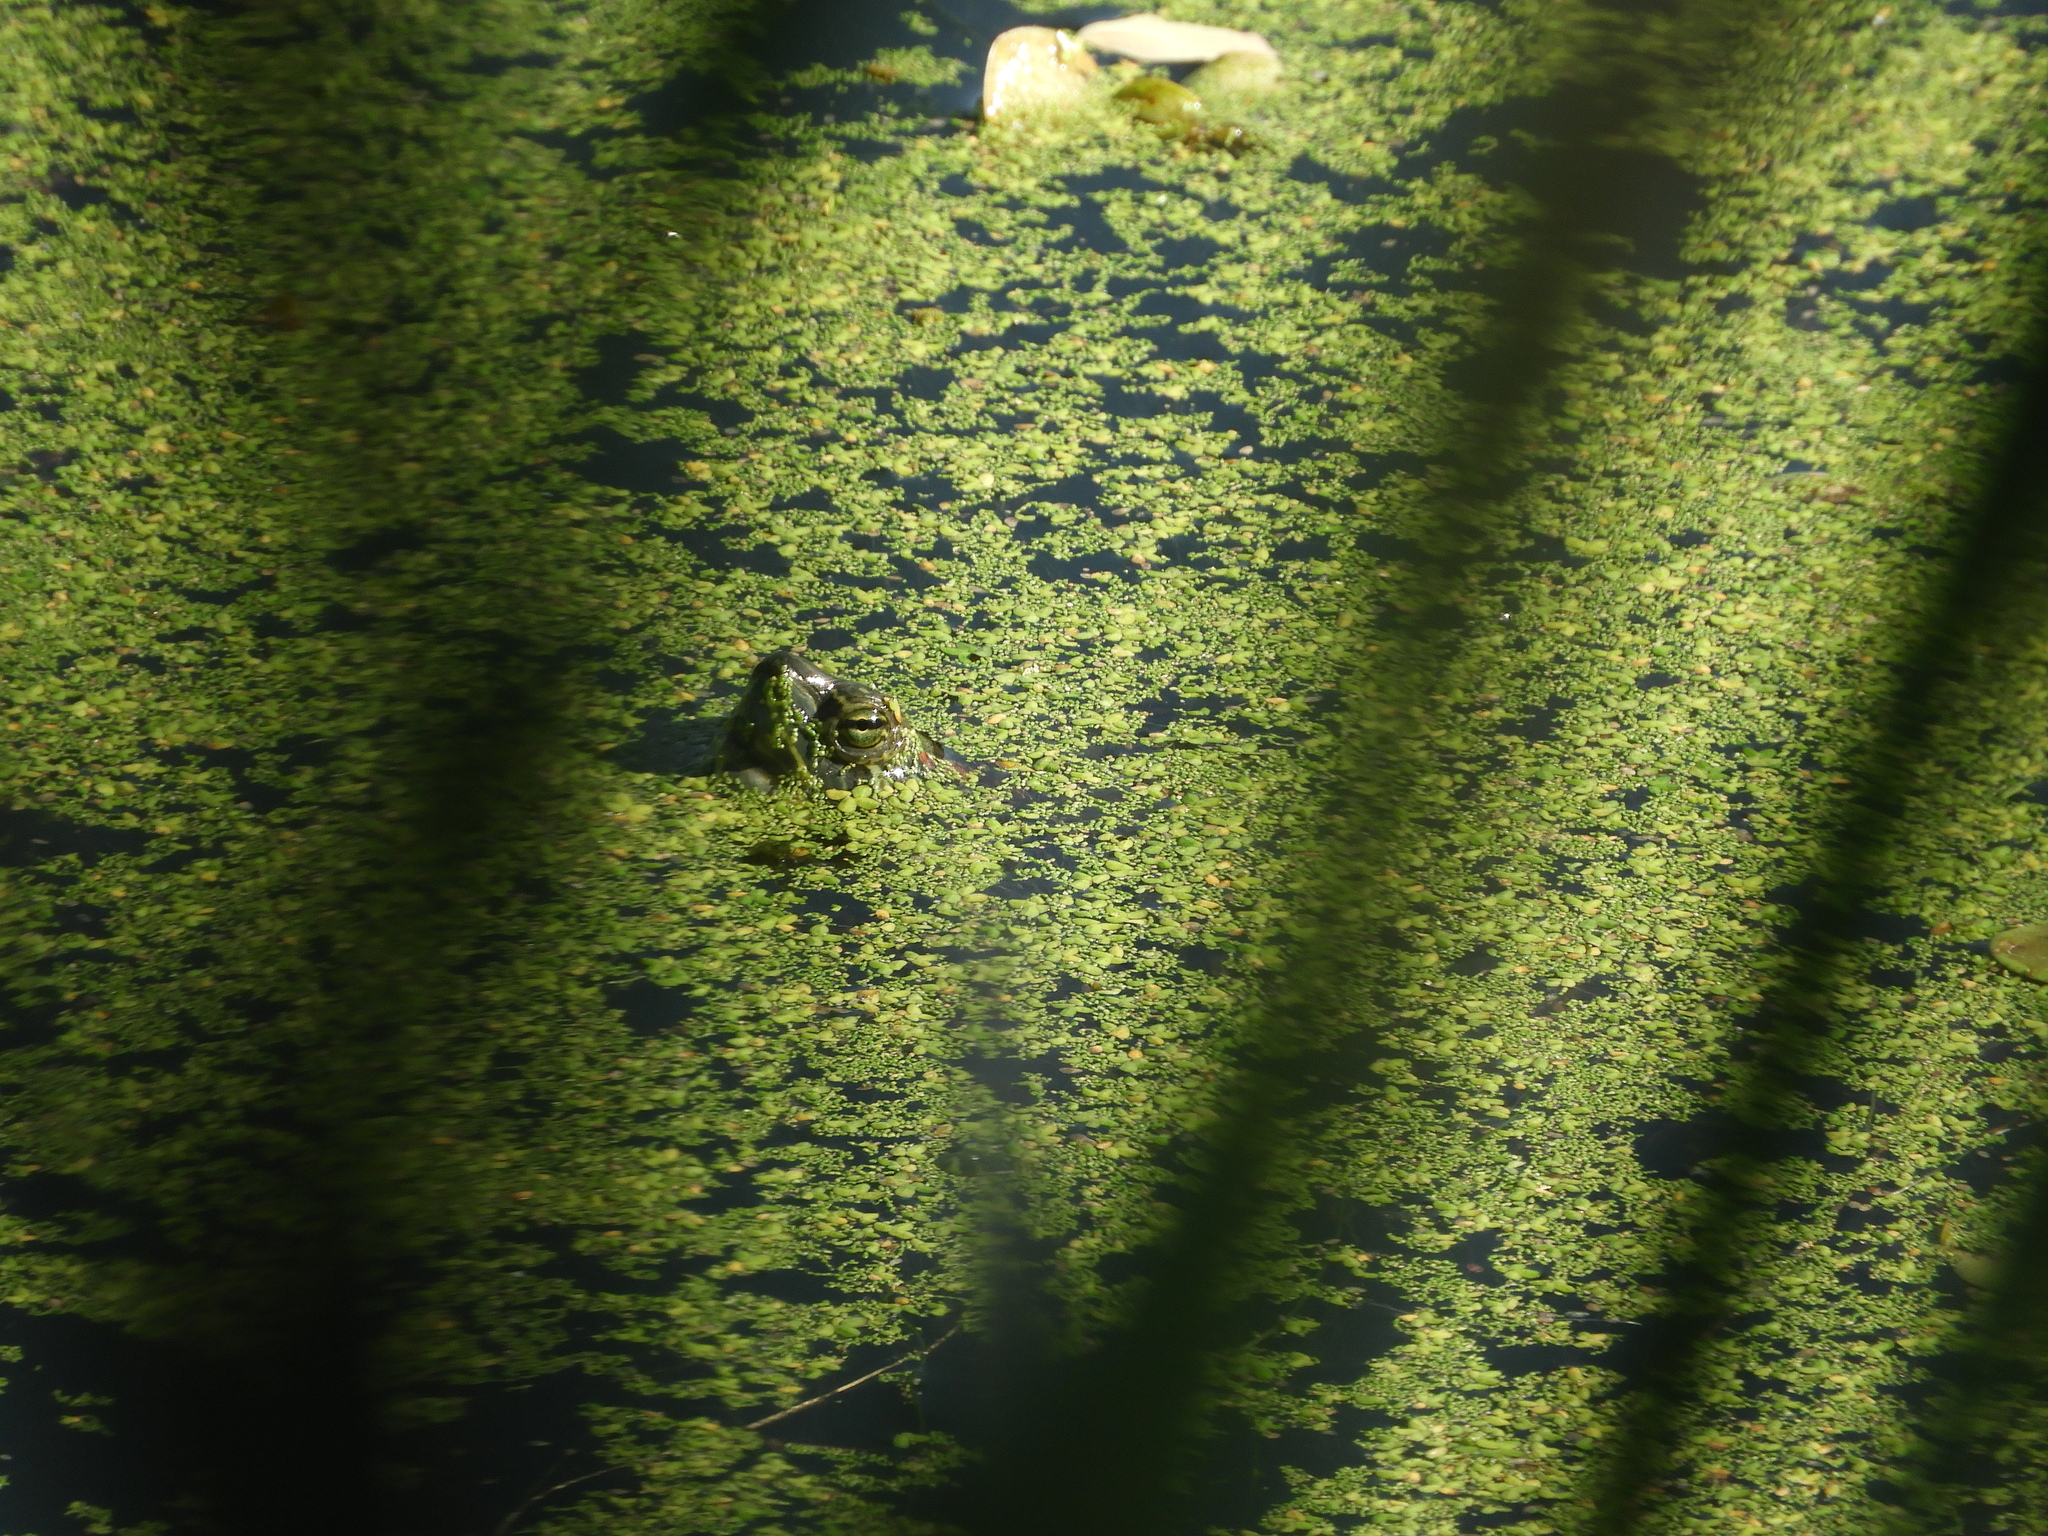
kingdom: Animalia
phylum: Chordata
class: Testudines
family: Emydidae
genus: Trachemys
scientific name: Trachemys scripta
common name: Slider
